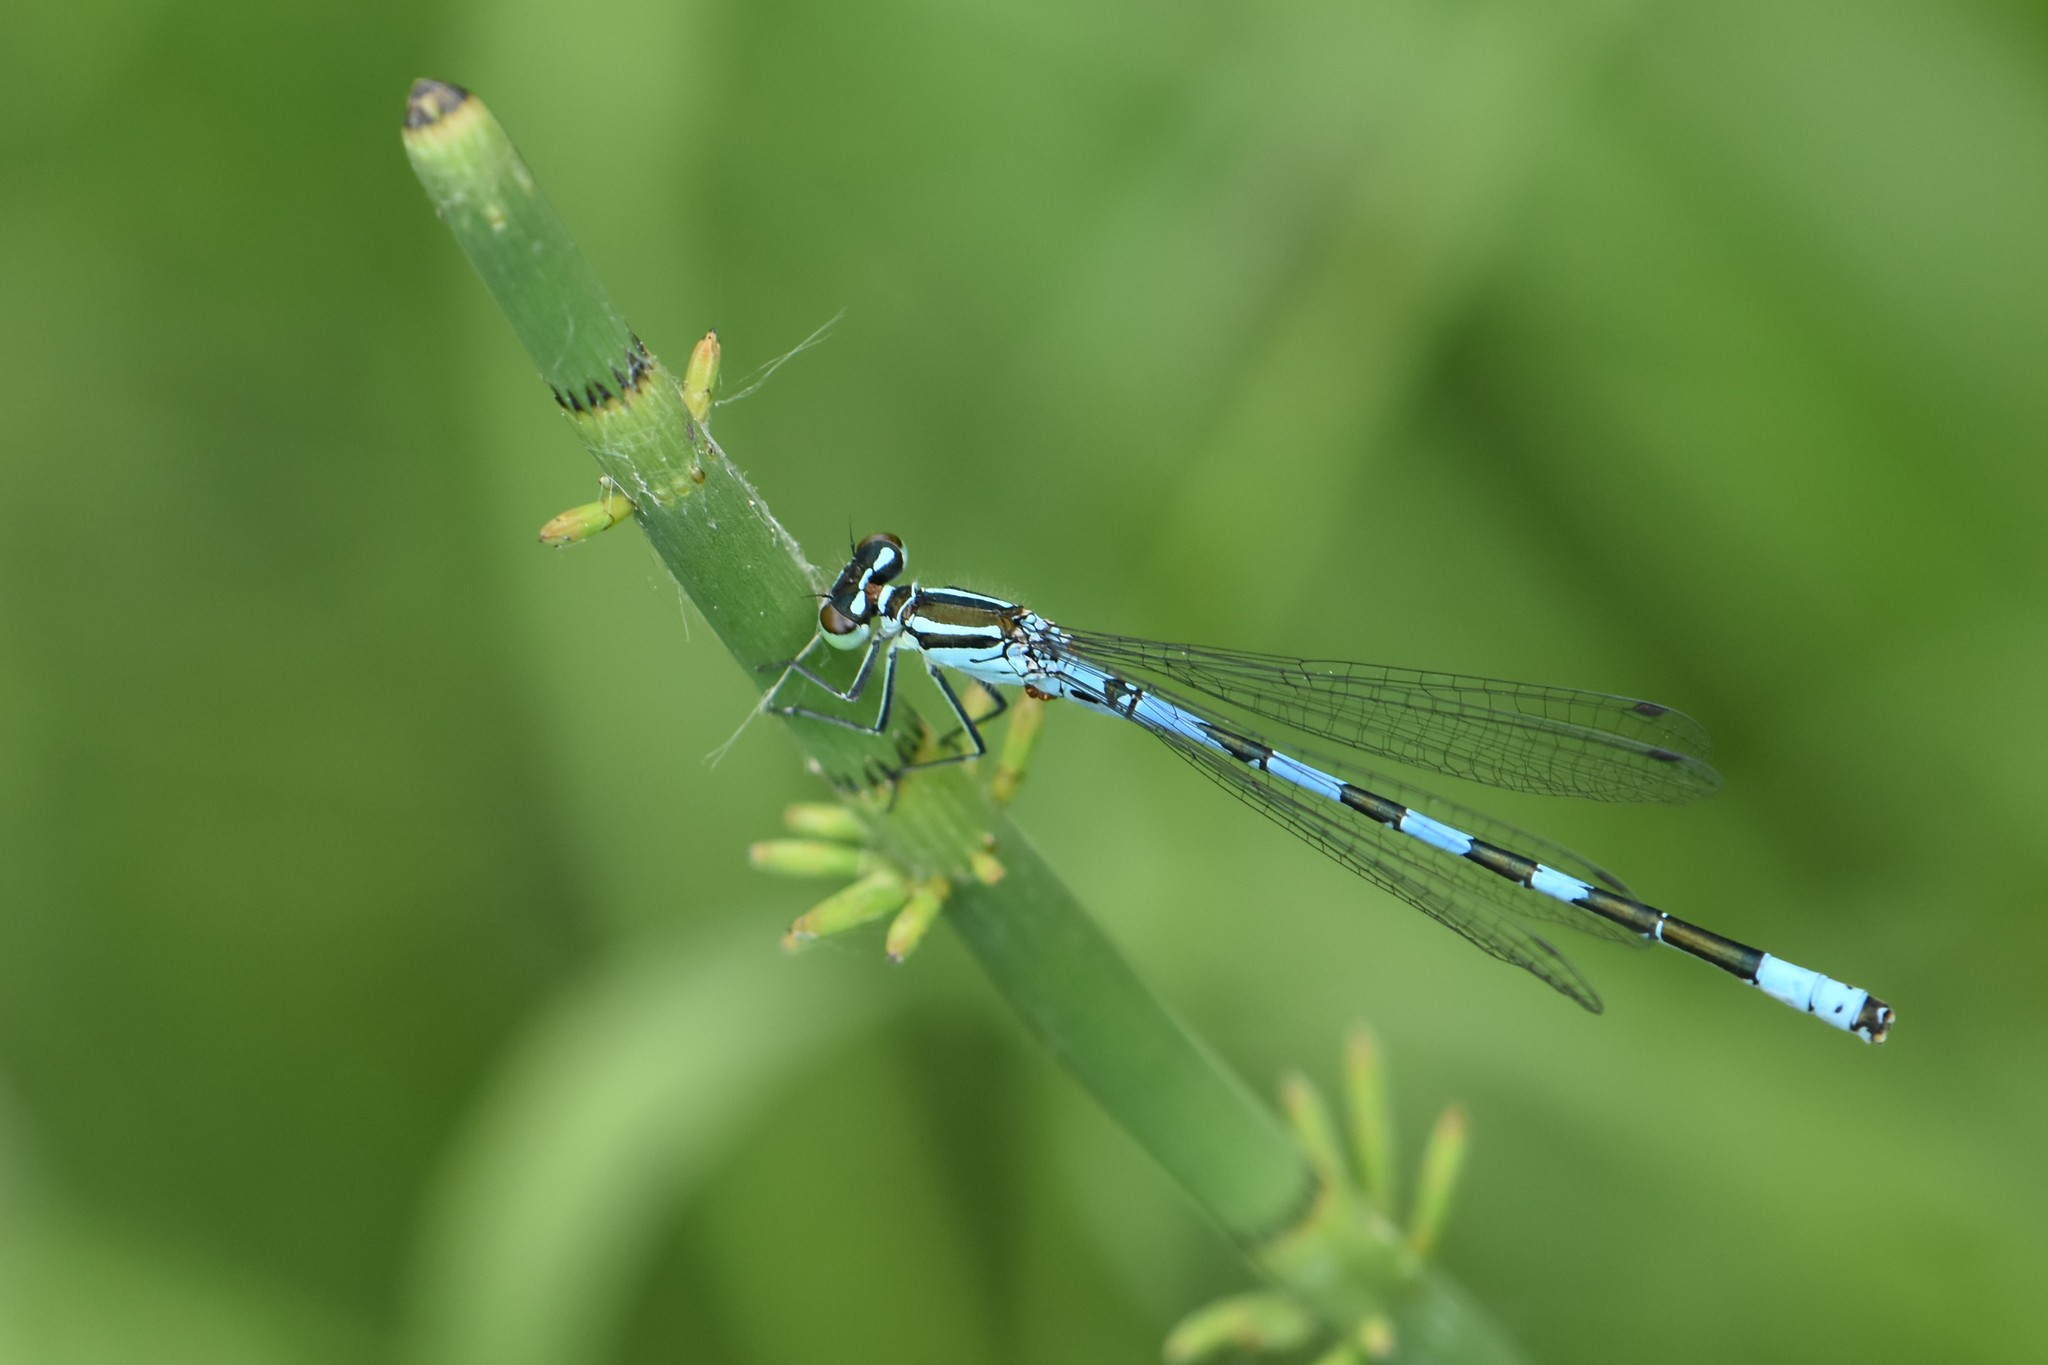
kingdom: Animalia
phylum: Arthropoda
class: Insecta
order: Odonata
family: Coenagrionidae
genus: Coenagrion
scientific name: Coenagrion hastulatum
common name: Spearhead bluet
